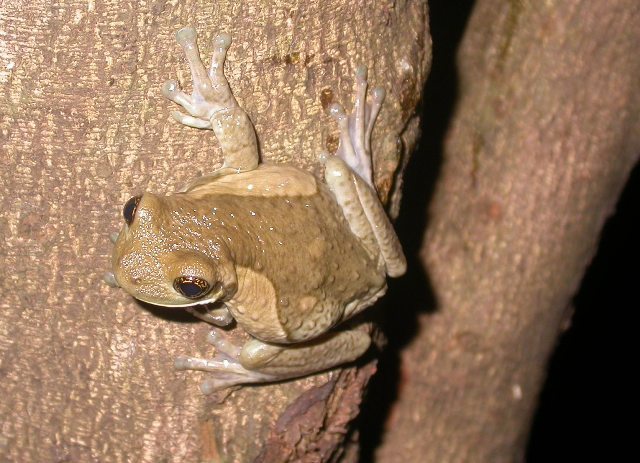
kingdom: Animalia
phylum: Chordata
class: Amphibia
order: Anura
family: Hylidae
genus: Trachycephalus
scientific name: Trachycephalus vermiculatus
